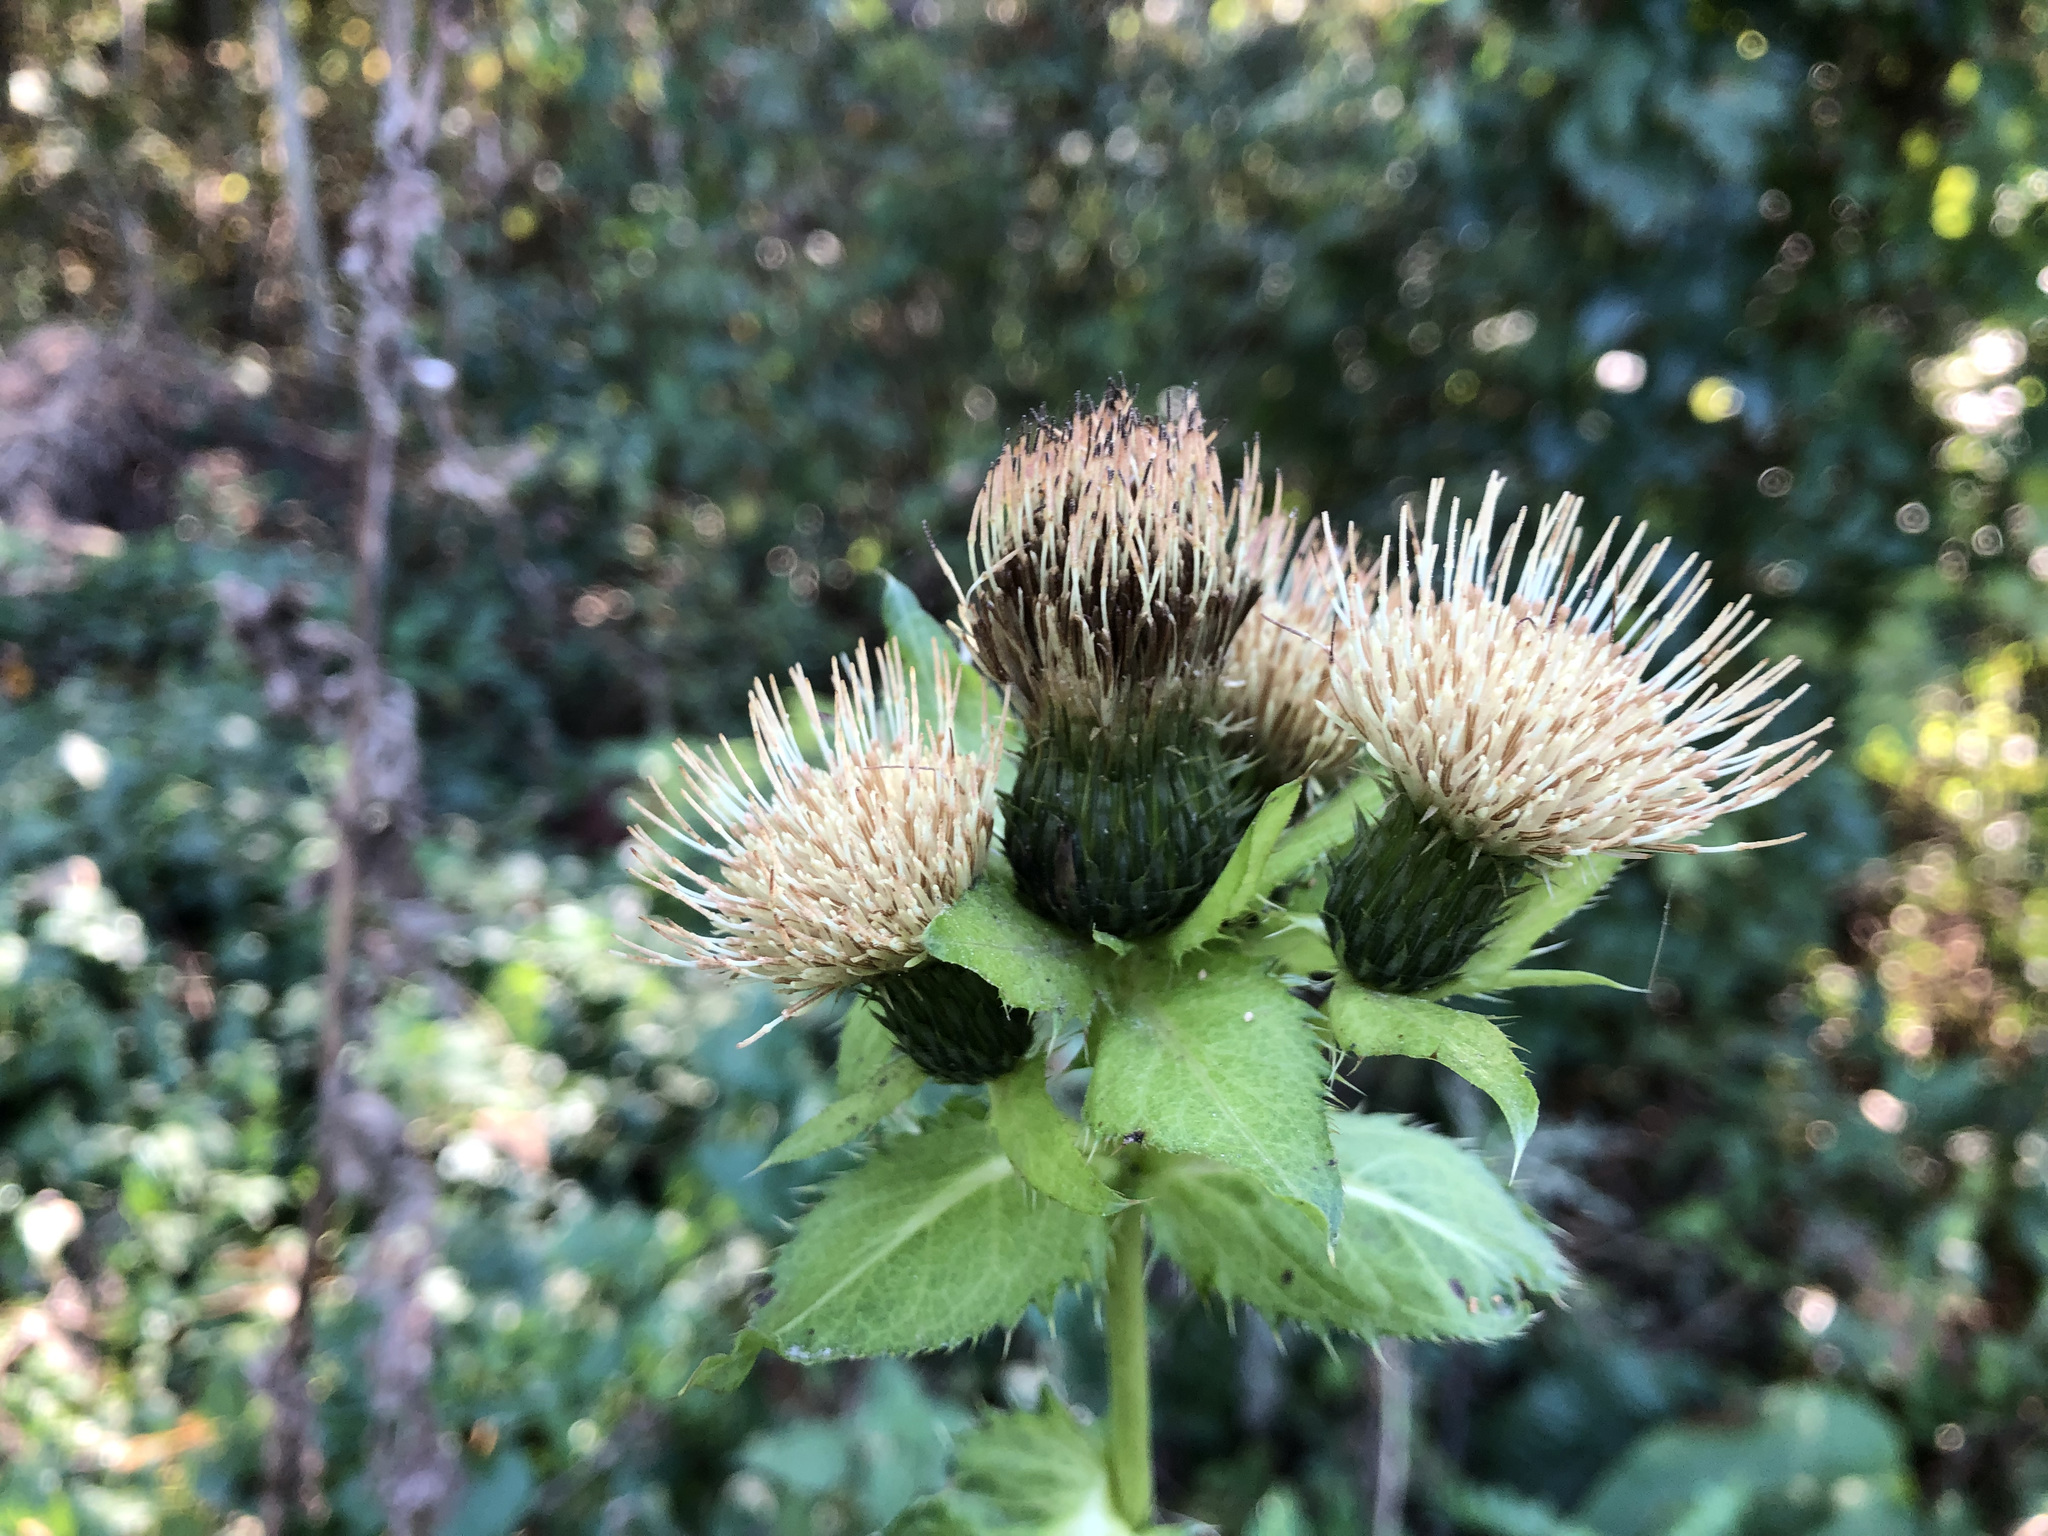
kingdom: Plantae
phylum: Tracheophyta
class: Magnoliopsida
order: Asterales
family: Asteraceae
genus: Cirsium
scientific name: Cirsium oleraceum
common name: Cabbage thistle
